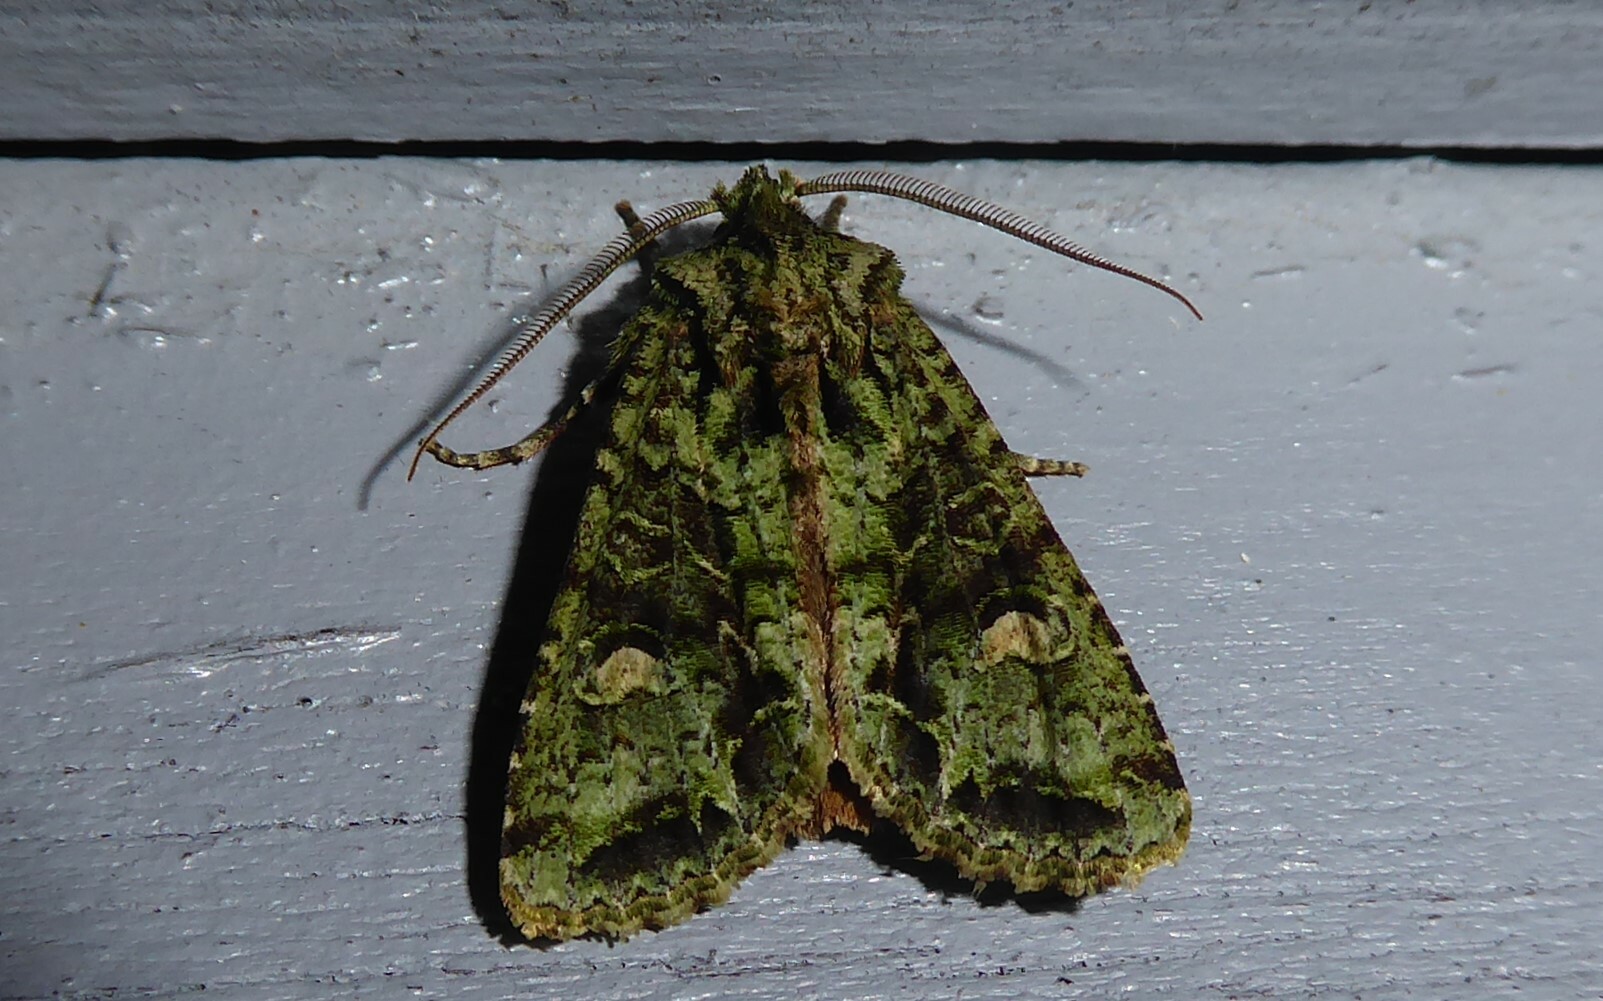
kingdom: Animalia
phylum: Arthropoda
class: Insecta
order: Lepidoptera
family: Noctuidae
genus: Ichneutica
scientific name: Ichneutica
